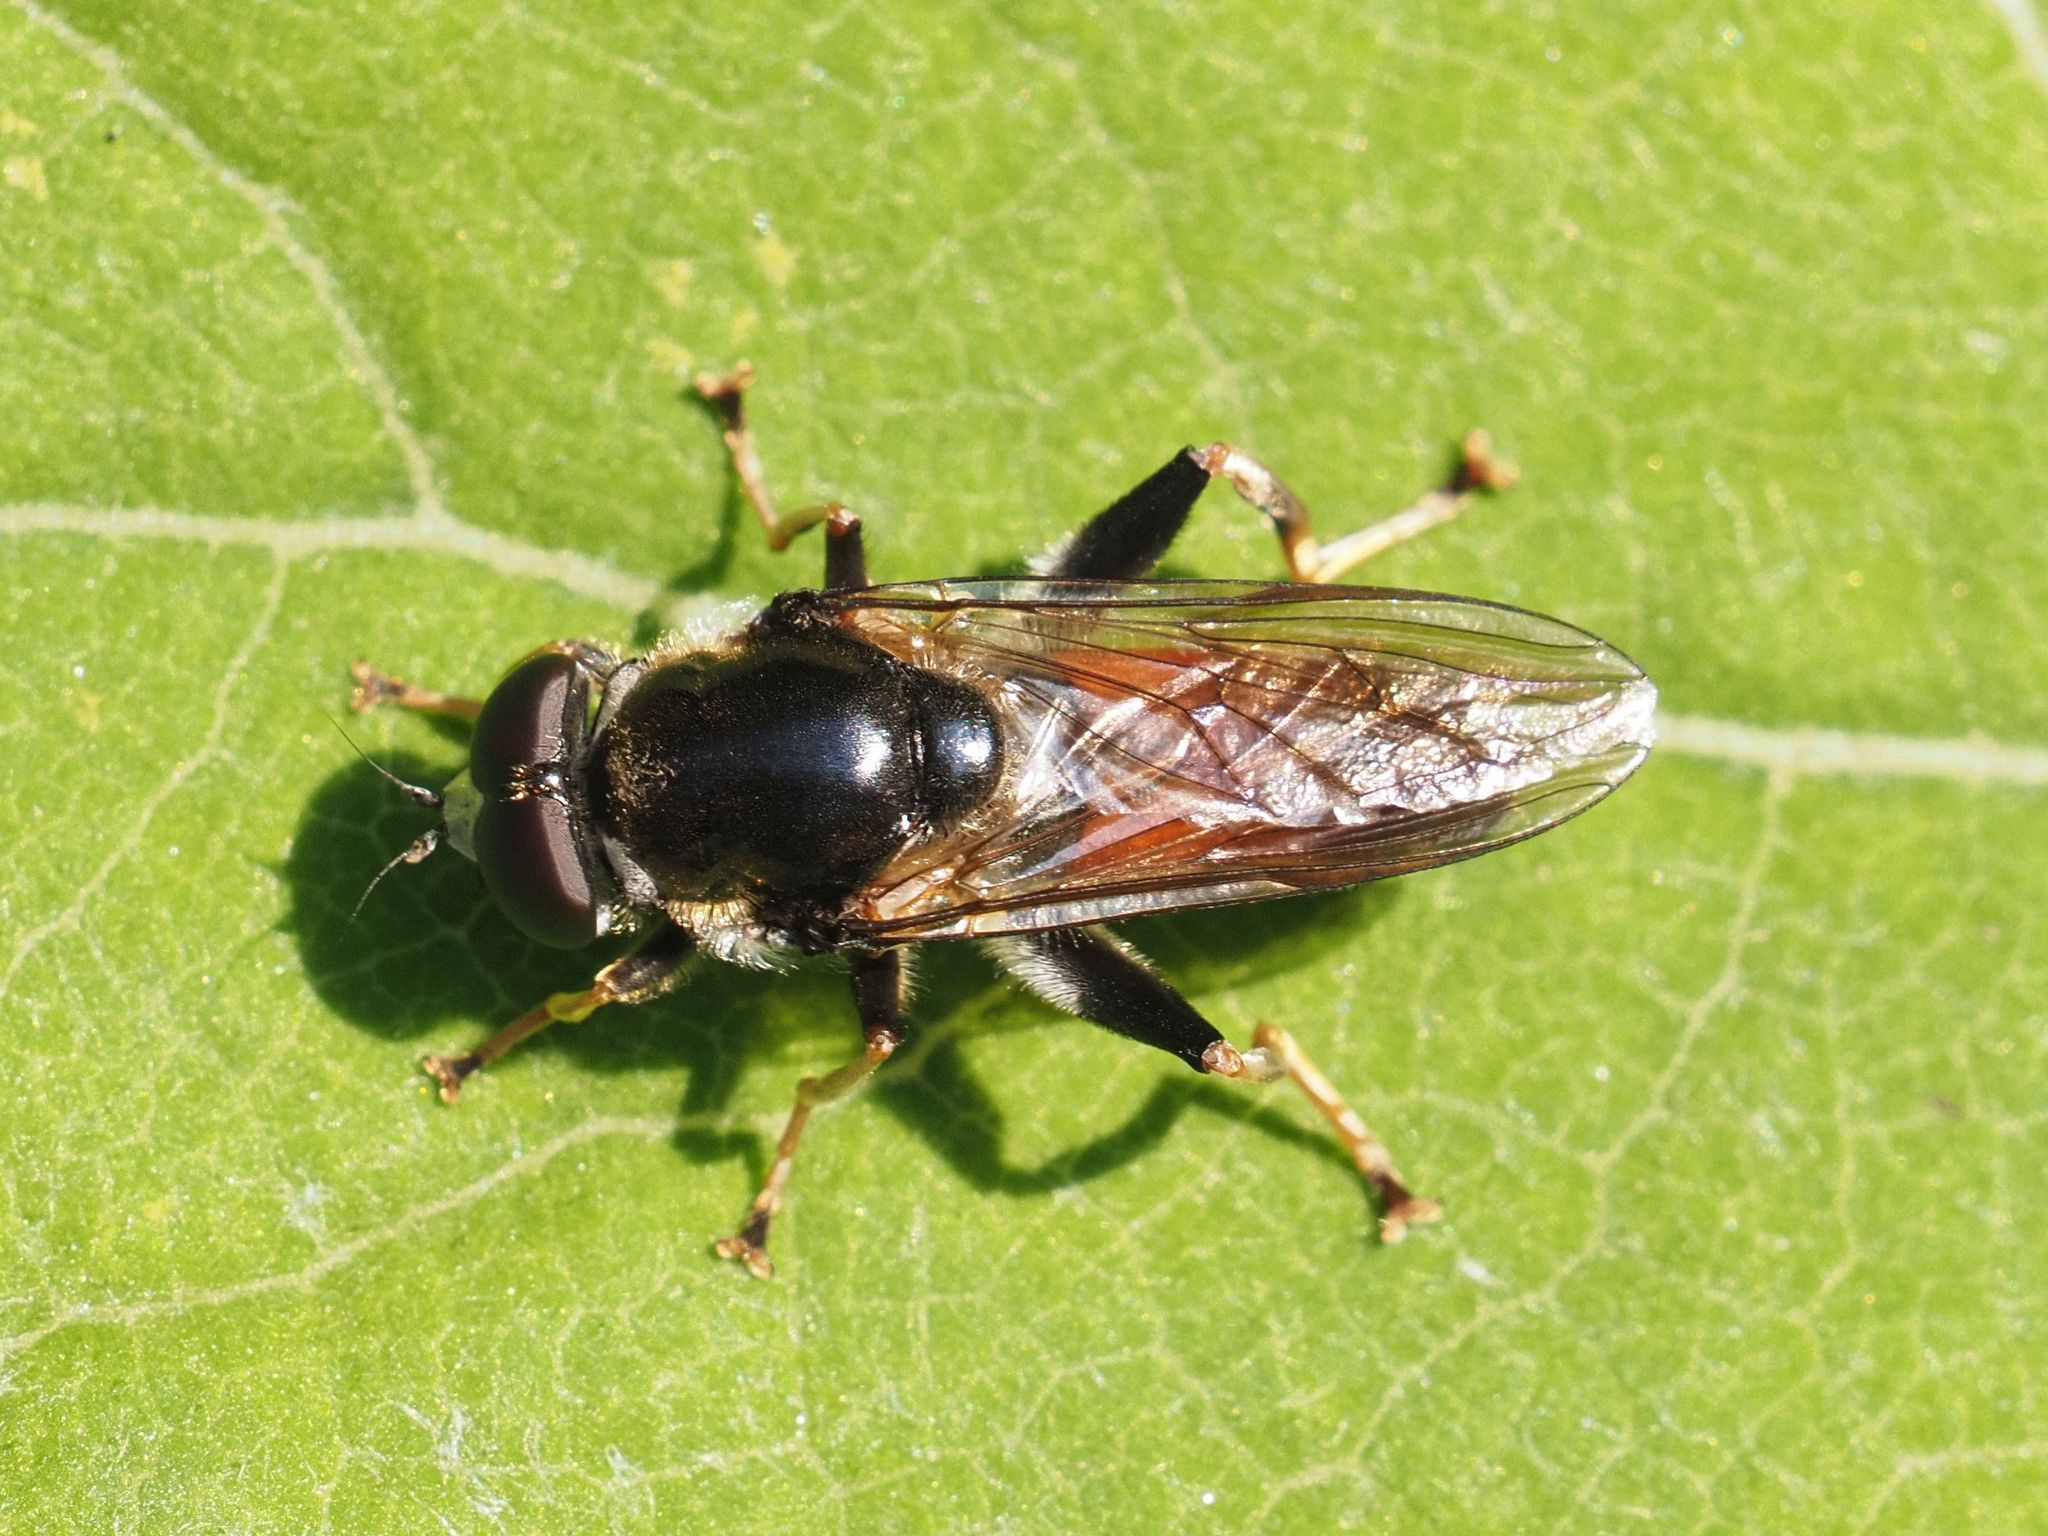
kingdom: Animalia
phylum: Arthropoda
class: Insecta
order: Diptera
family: Syrphidae
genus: Xylota
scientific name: Xylota ignava
